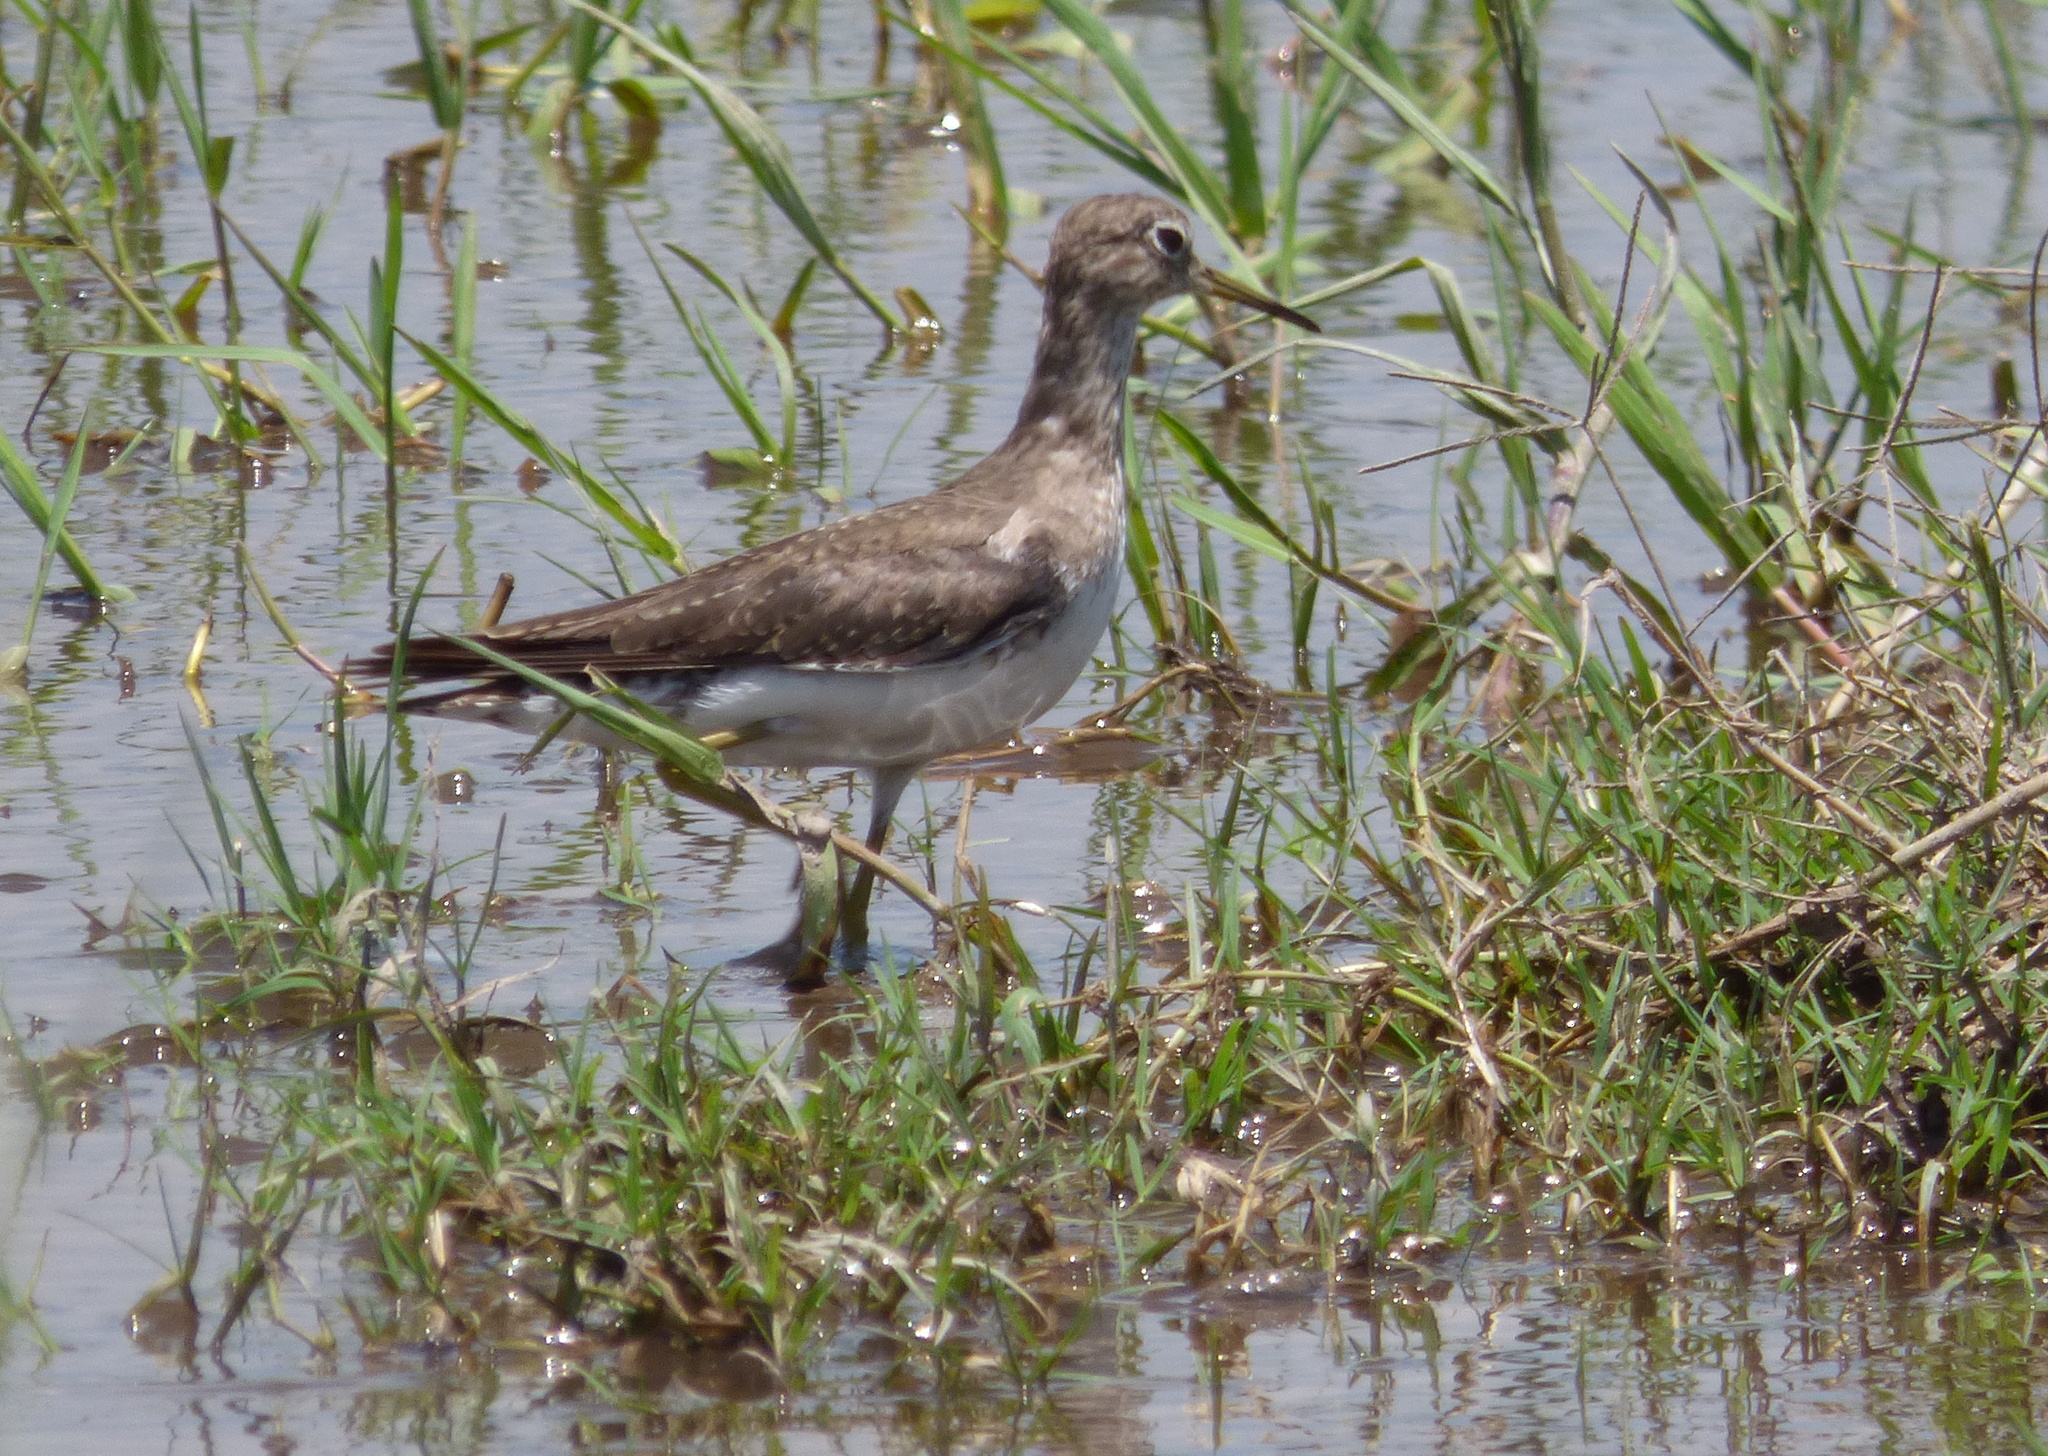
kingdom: Animalia
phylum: Chordata
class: Aves
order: Charadriiformes
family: Scolopacidae
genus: Tringa
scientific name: Tringa solitaria
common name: Solitary sandpiper
